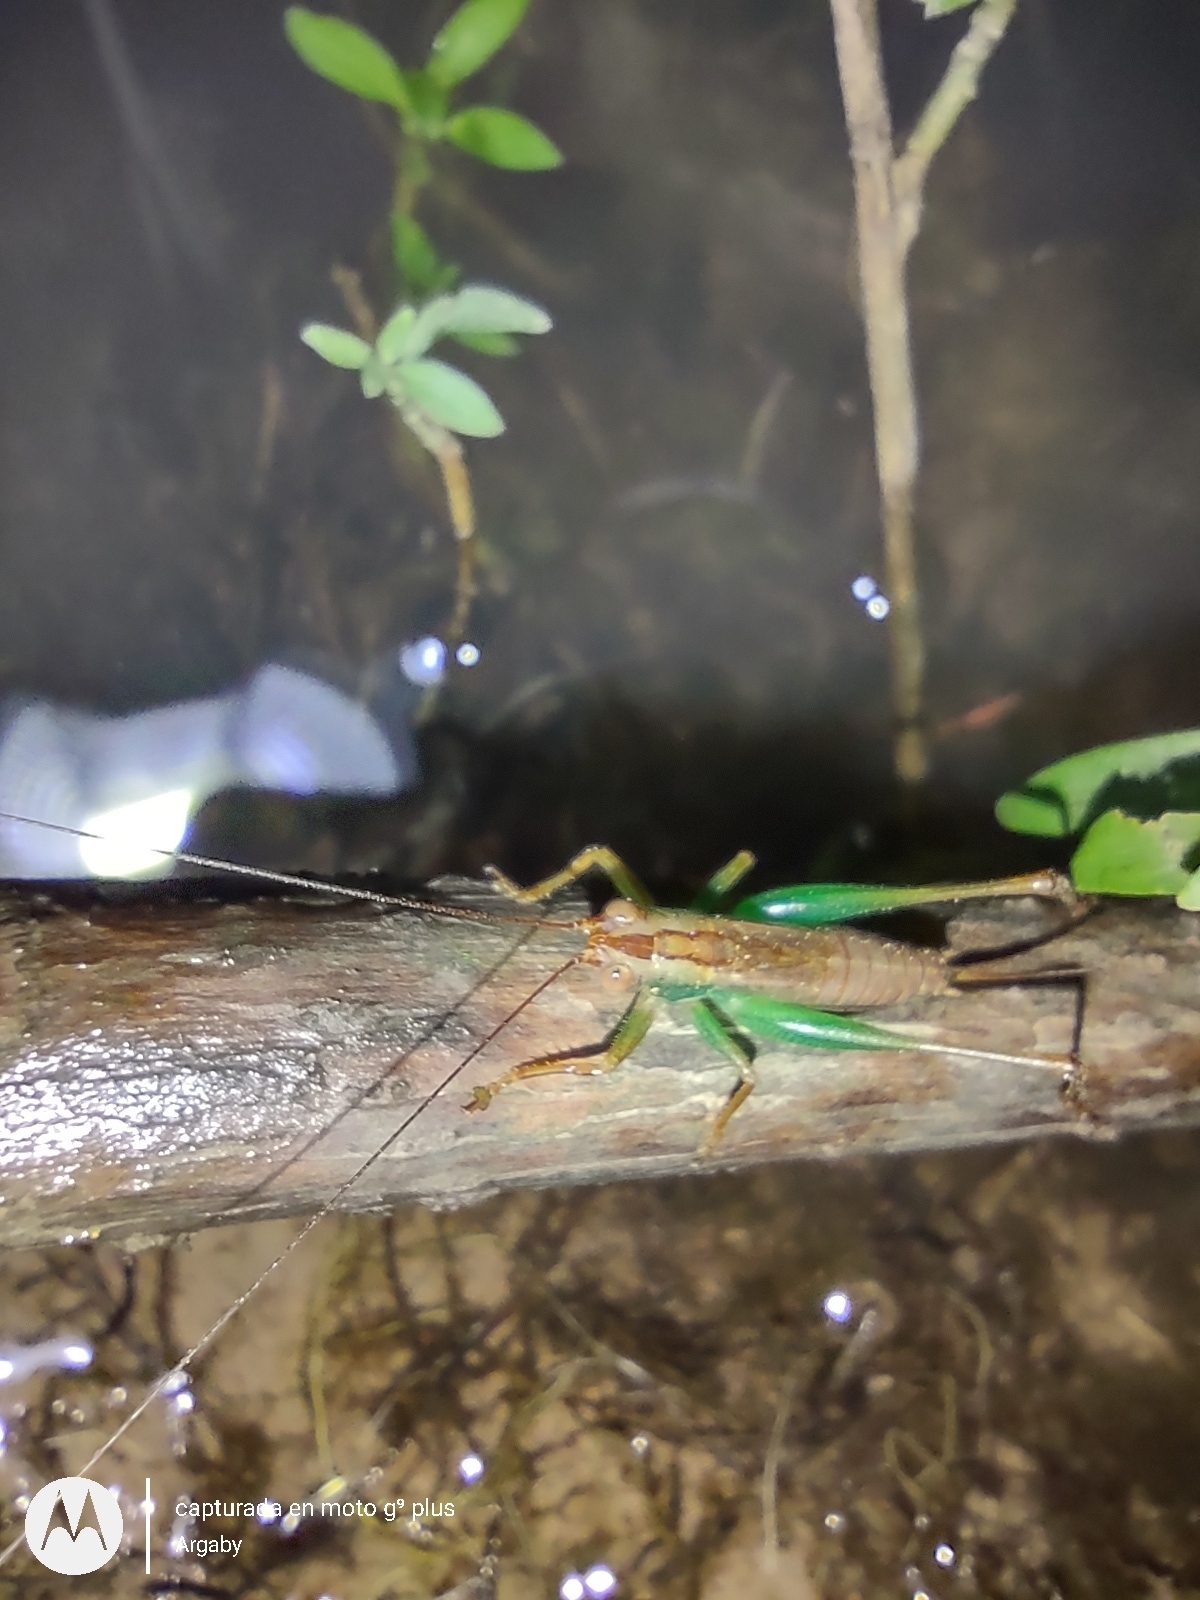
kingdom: Animalia
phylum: Arthropoda
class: Insecta
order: Orthoptera
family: Tettigoniidae
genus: Conocephalus
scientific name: Conocephalus cinnamonifrons
